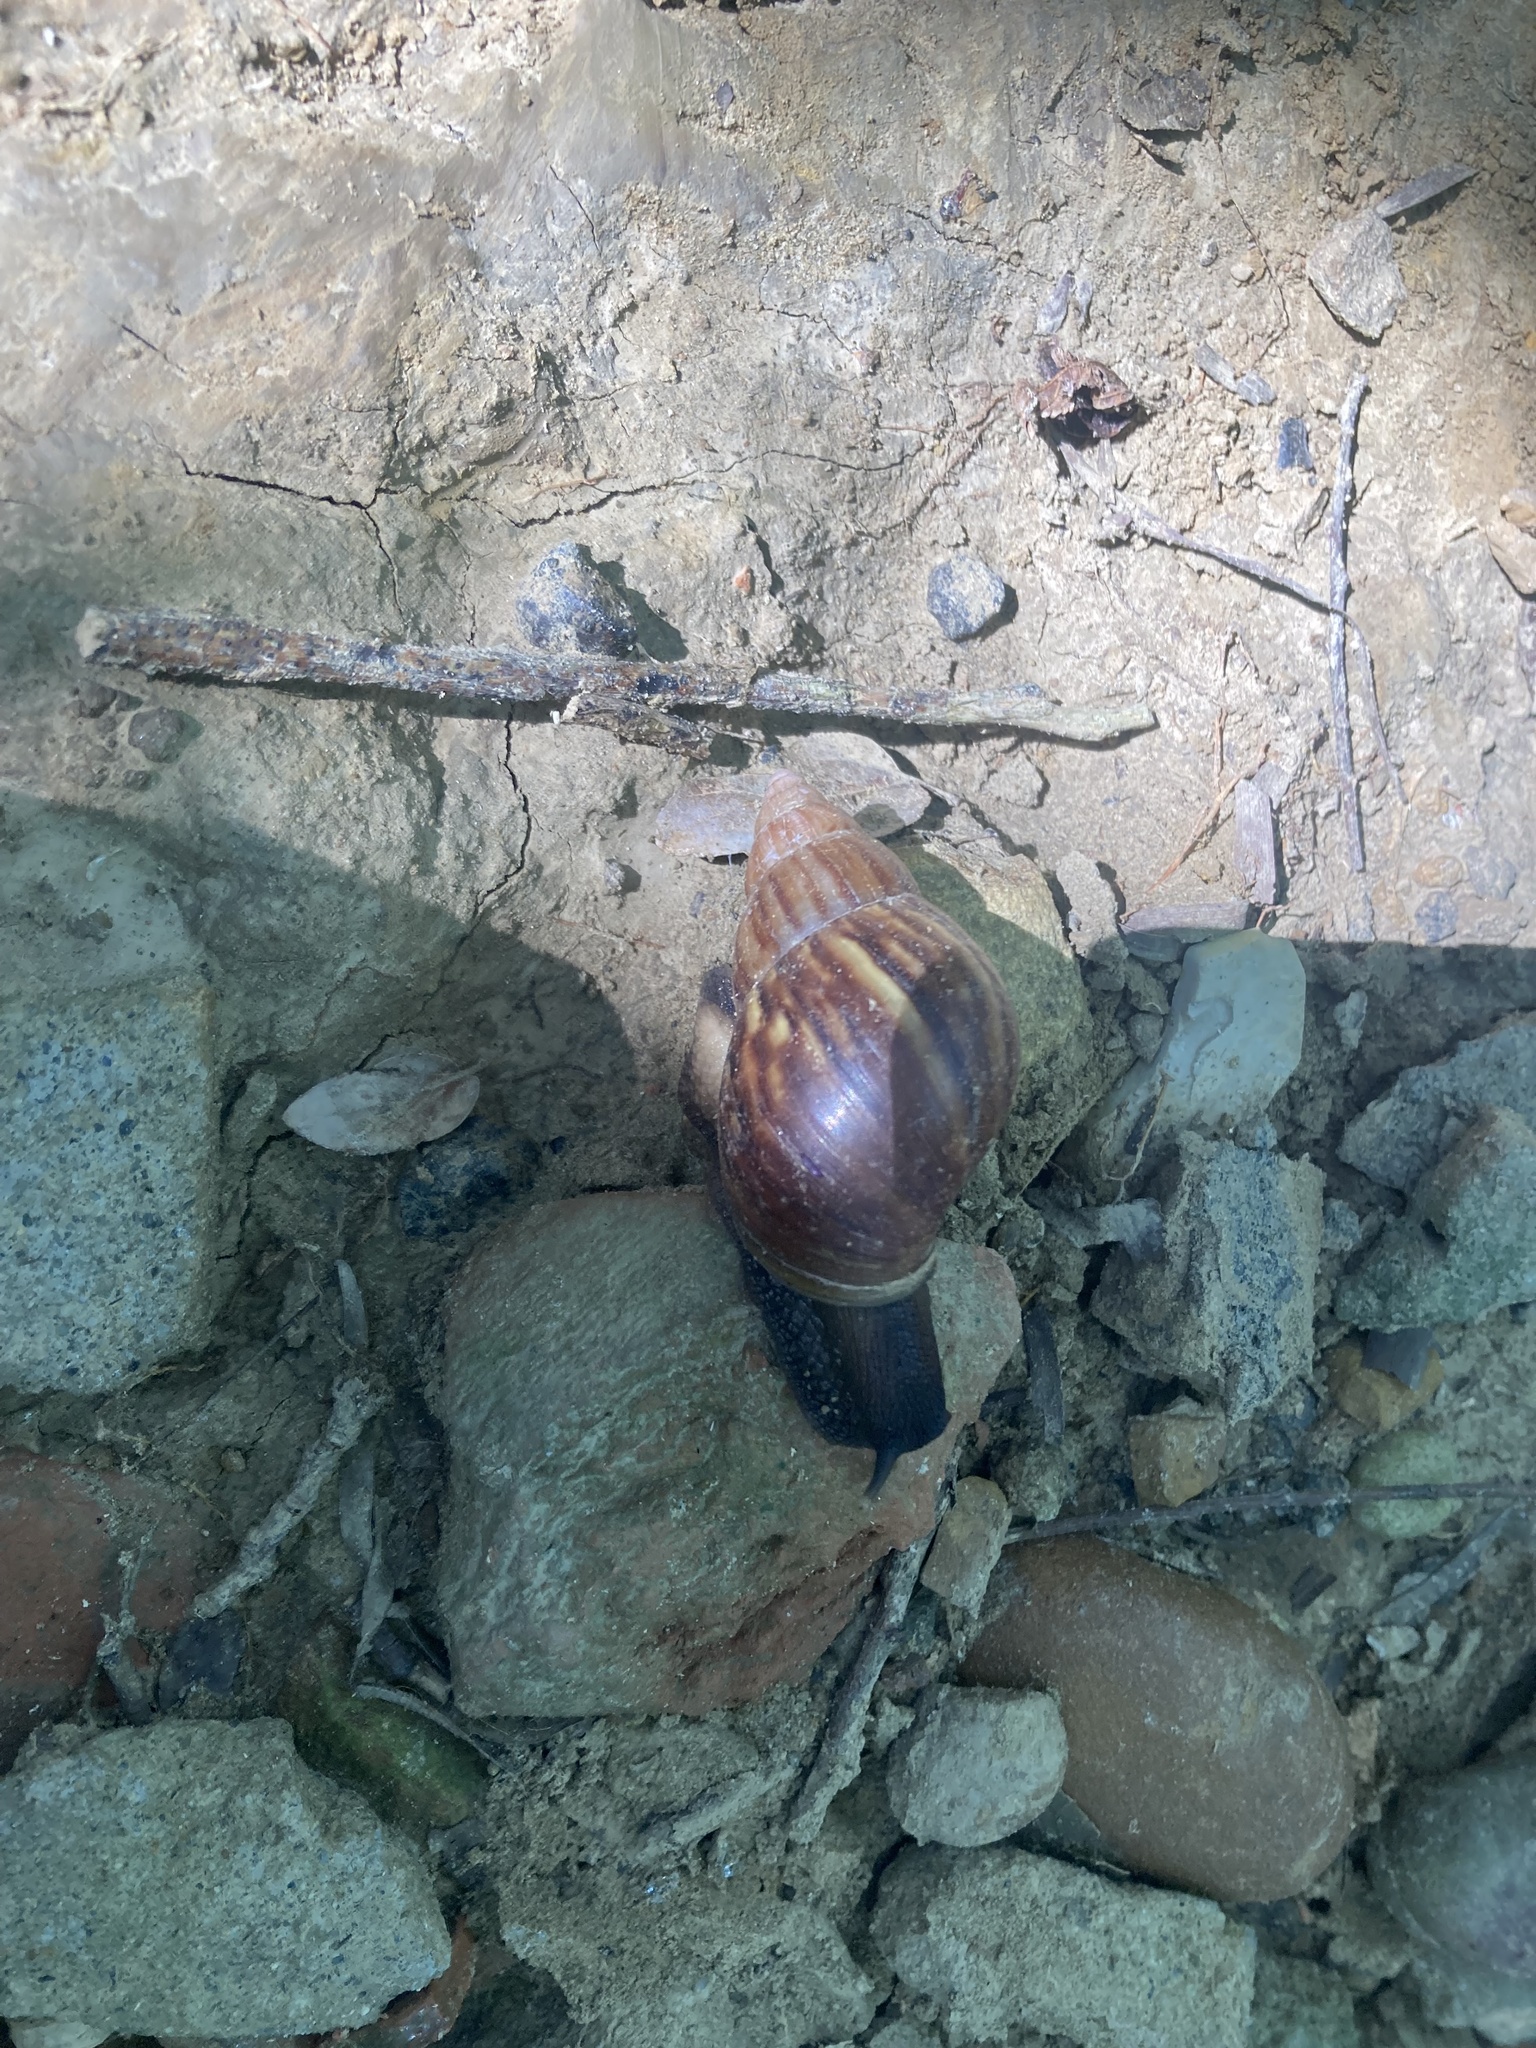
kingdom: Animalia
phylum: Mollusca
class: Gastropoda
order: Stylommatophora
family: Achatinidae
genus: Lissachatina
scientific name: Lissachatina fulica
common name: Giant african snail
